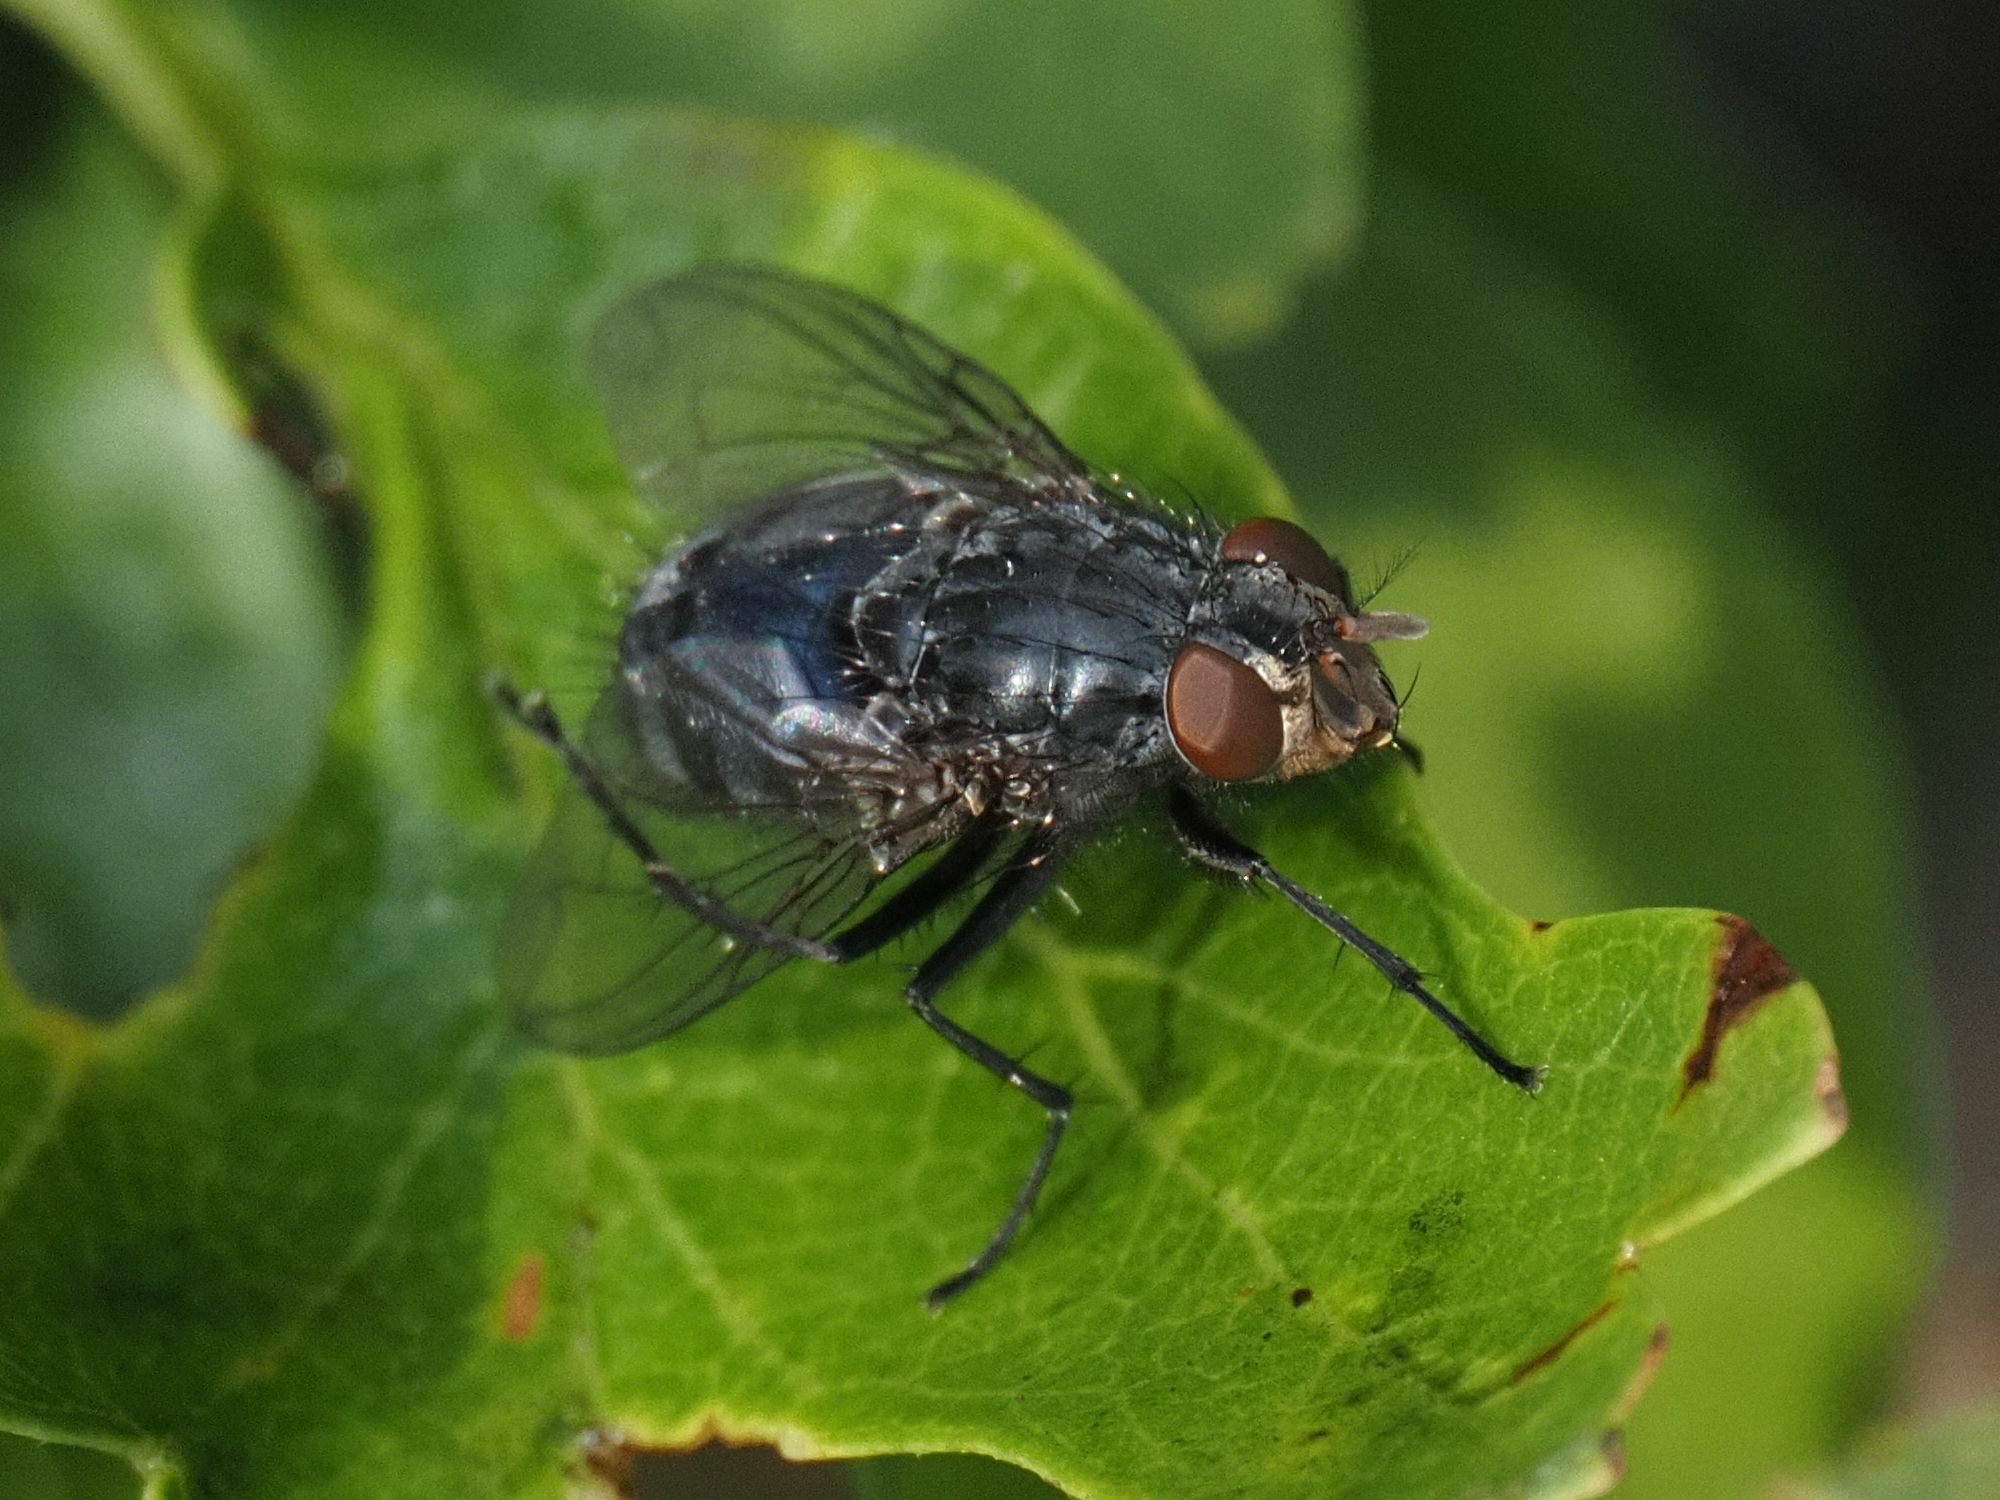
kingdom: Animalia
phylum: Arthropoda
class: Insecta
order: Diptera
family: Calliphoridae
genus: Calliphora
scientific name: Calliphora vicina
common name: Common blow flie
